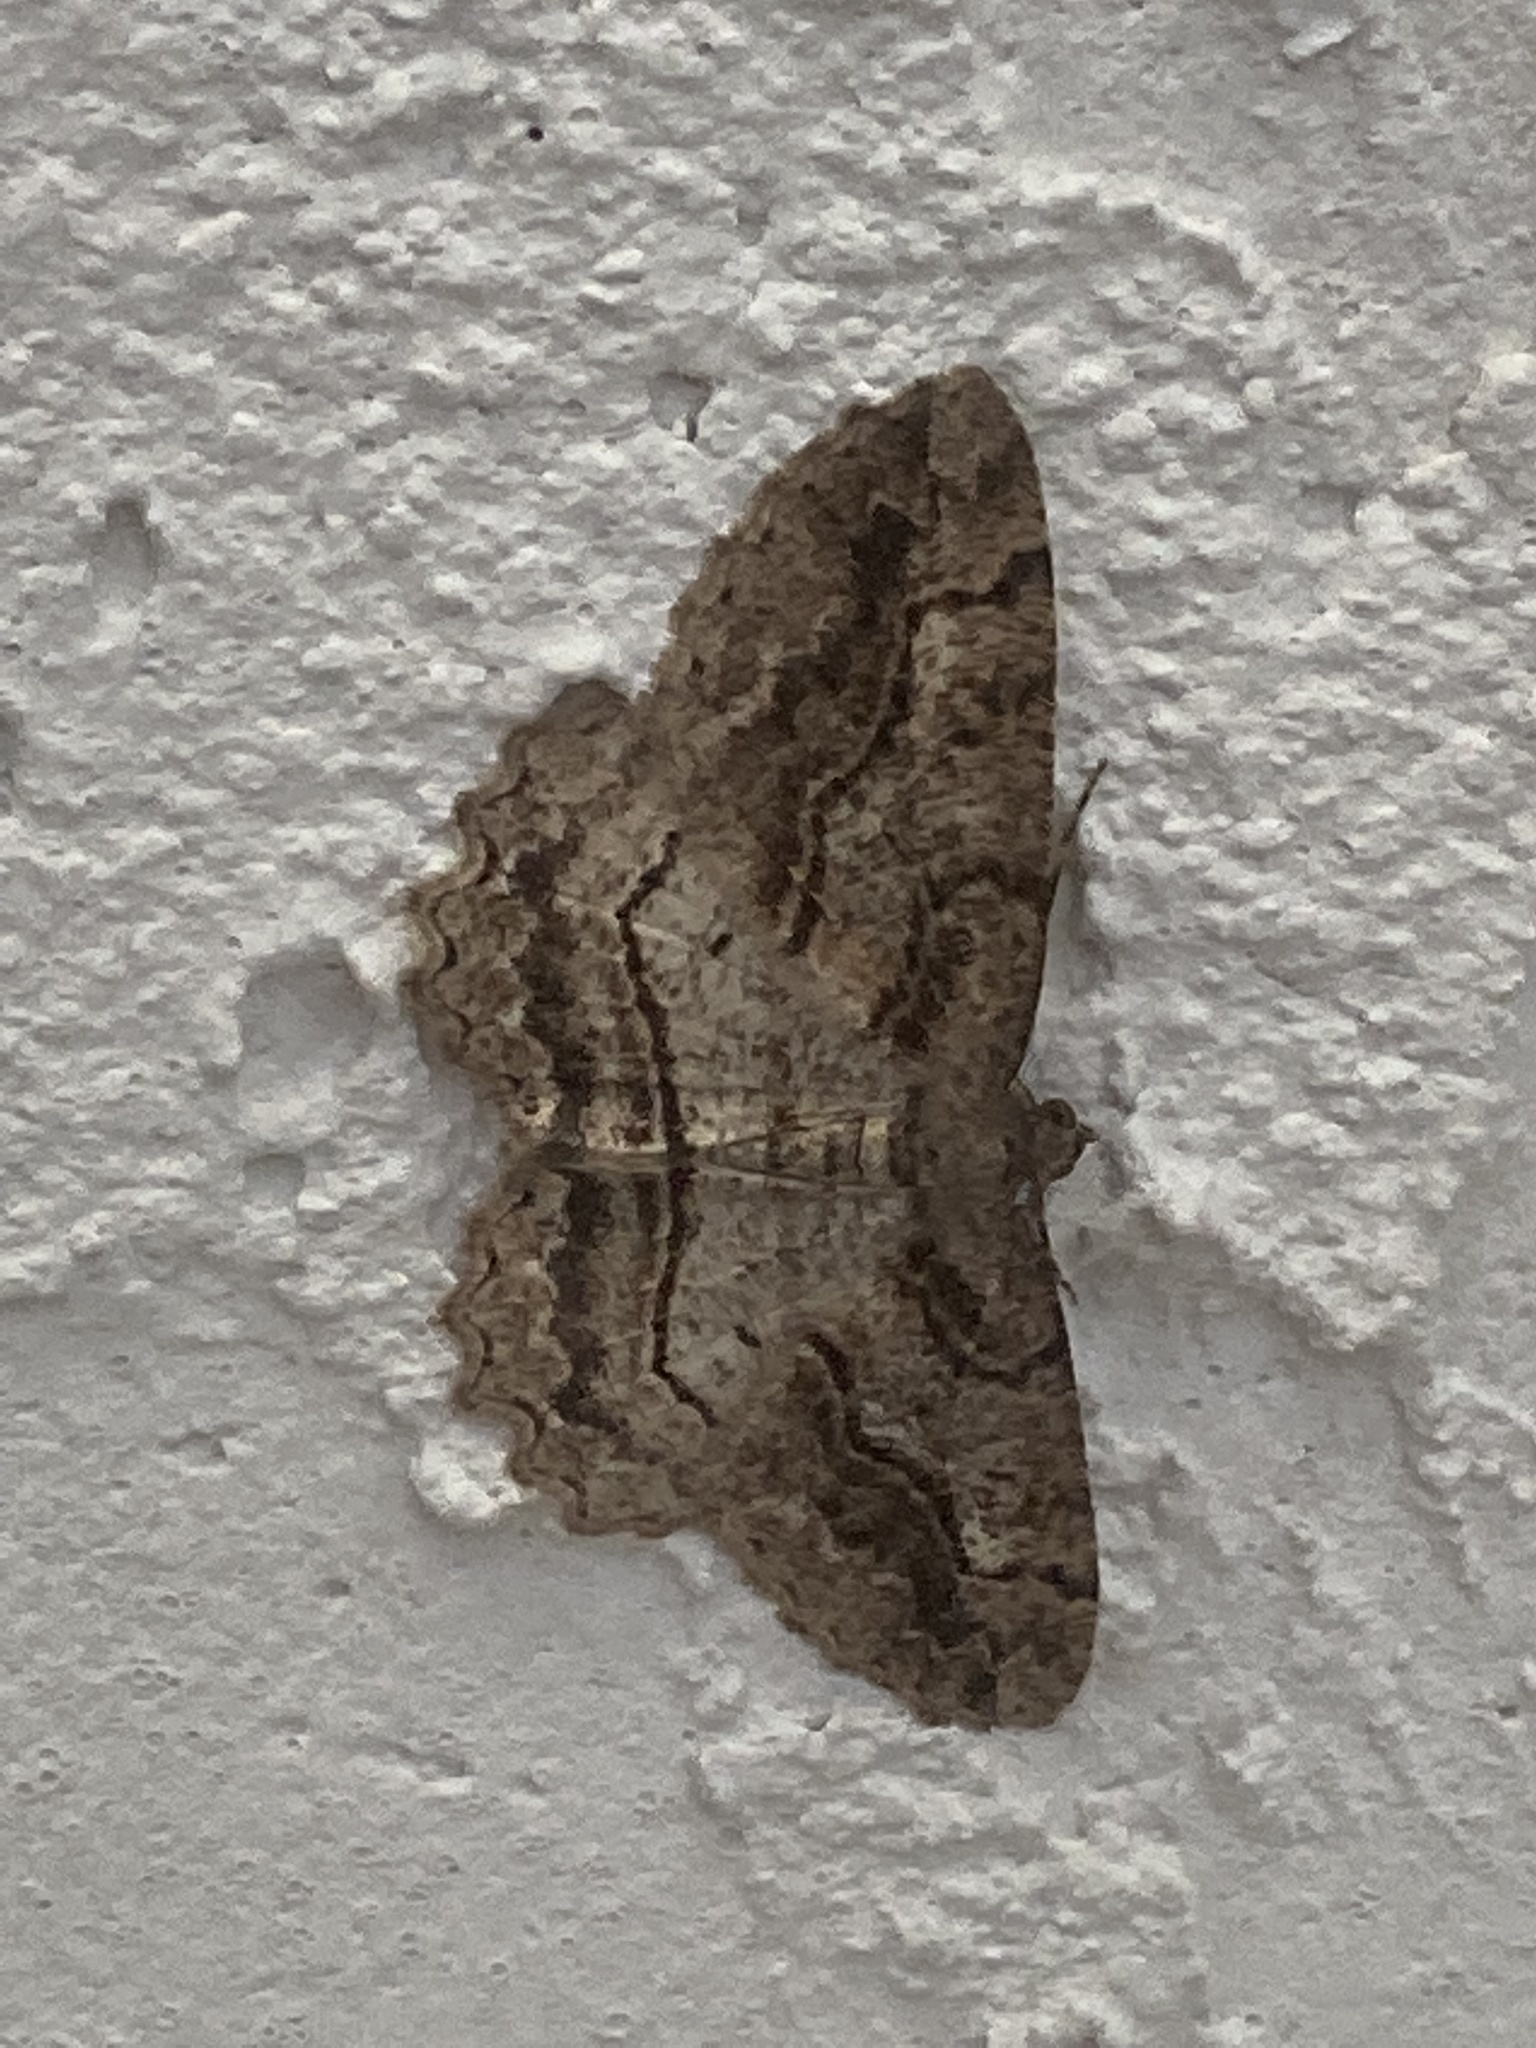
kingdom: Animalia
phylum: Arthropoda
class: Insecta
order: Lepidoptera
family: Geometridae
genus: Neoalcis
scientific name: Neoalcis californiaria
